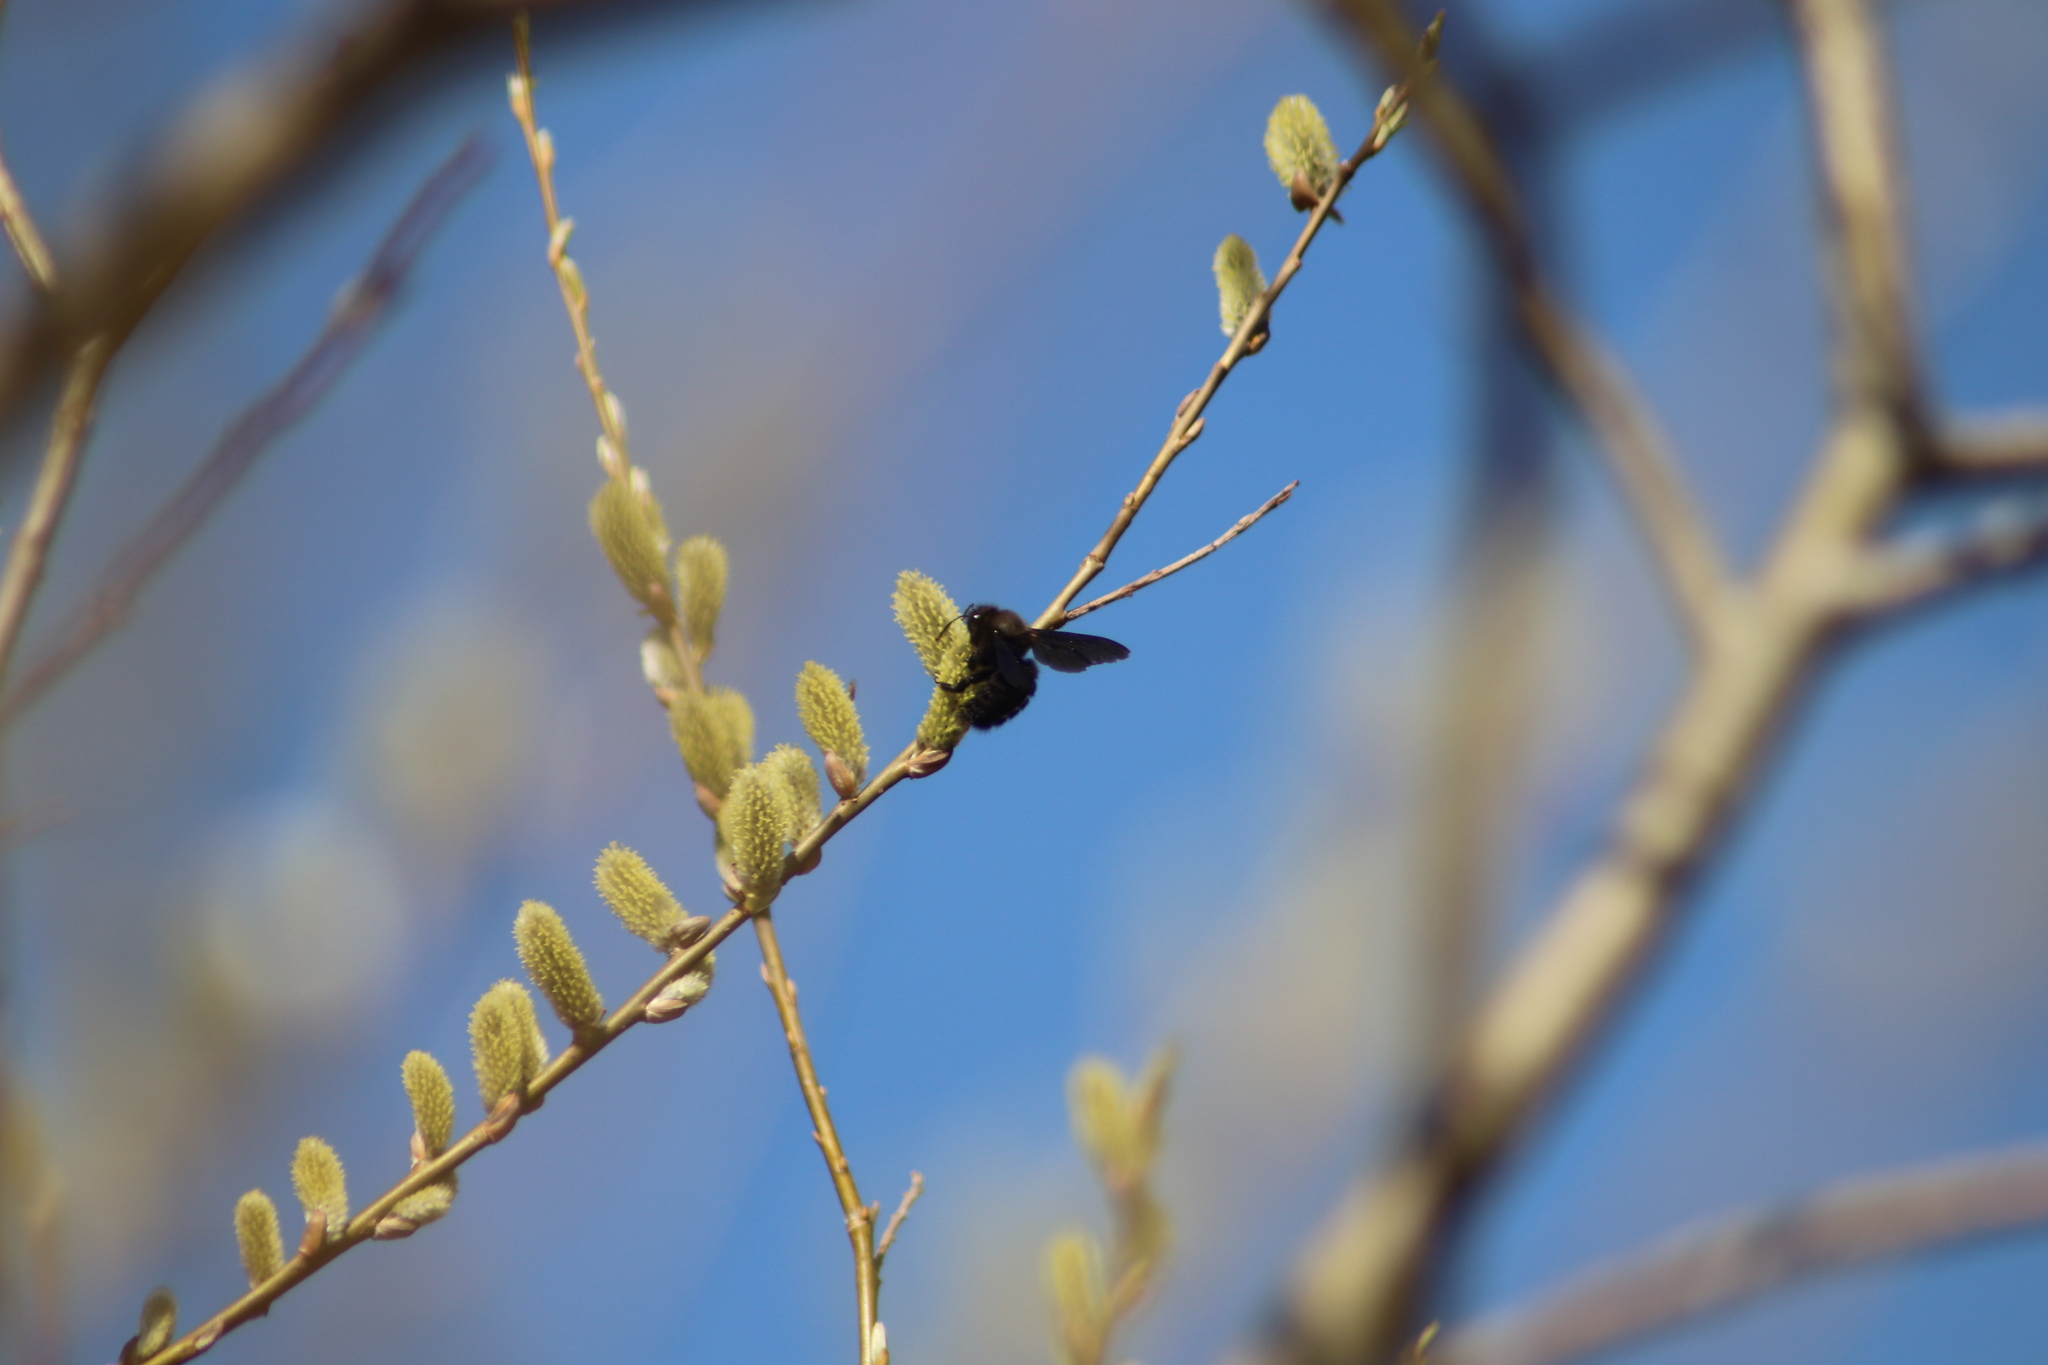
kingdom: Animalia
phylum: Arthropoda
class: Insecta
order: Hymenoptera
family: Apidae
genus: Xylocopa
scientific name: Xylocopa violacea
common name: Violet carpenter bee
